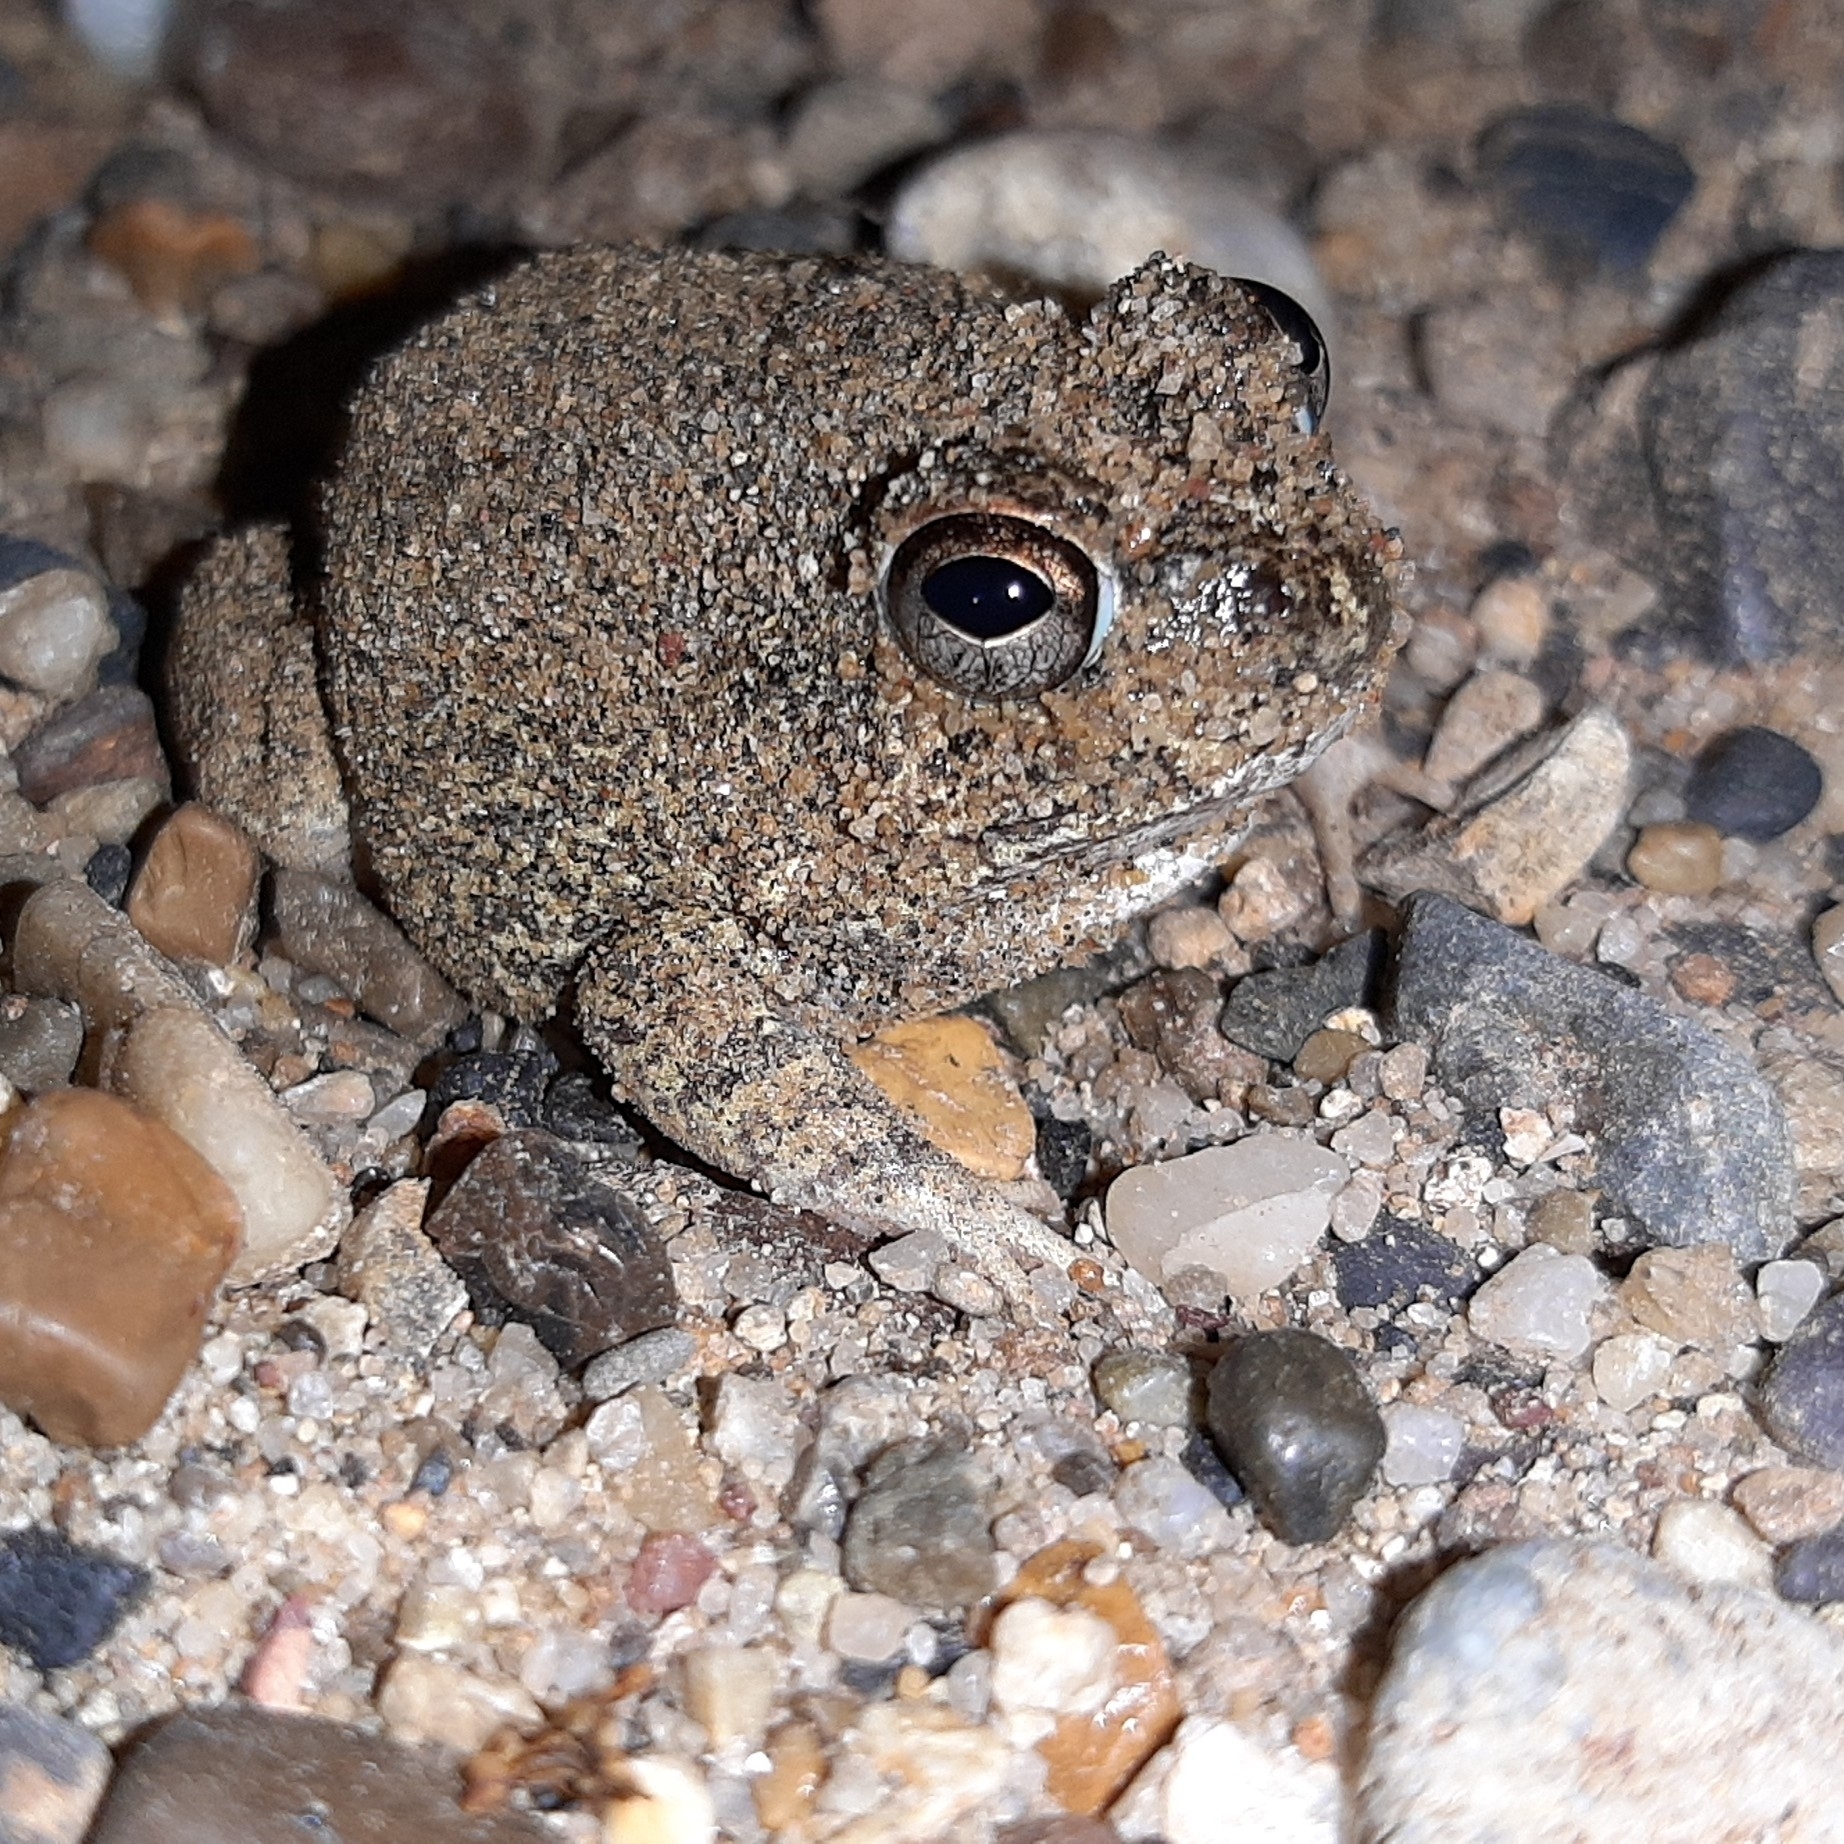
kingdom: Animalia
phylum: Chordata
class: Amphibia
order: Anura
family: Leptodactylidae
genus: Pleurodema
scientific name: Pleurodema brachyops
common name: Colombian four-eyed frog
